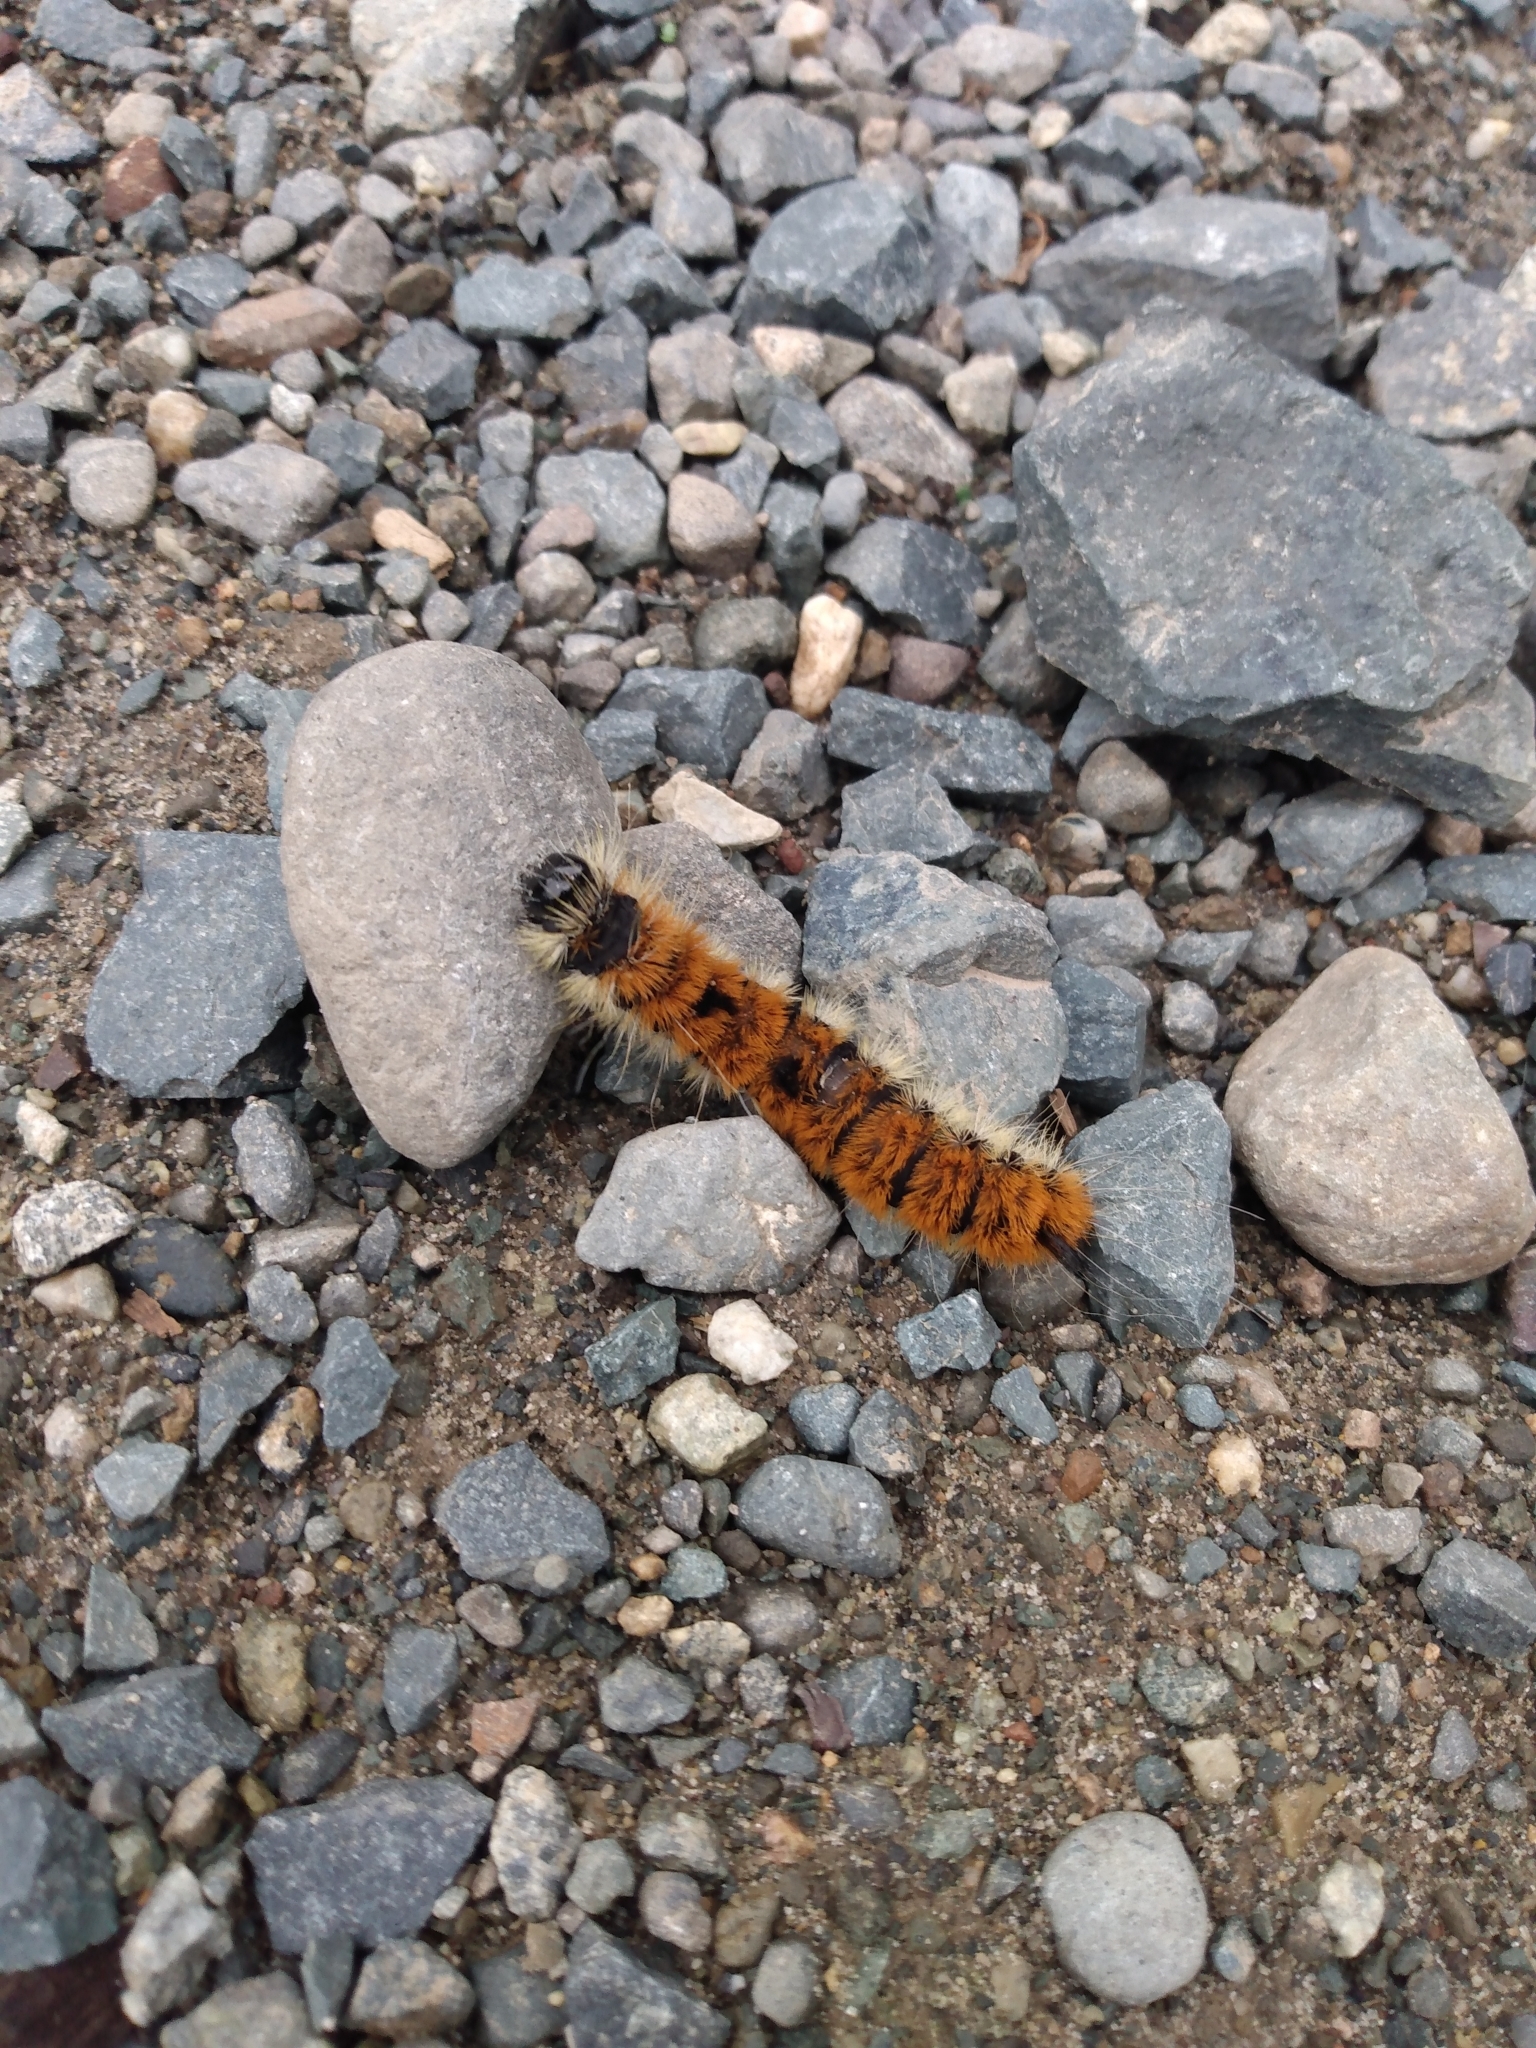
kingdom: Animalia
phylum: Arthropoda
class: Insecta
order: Lepidoptera
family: Noctuidae
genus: Acronicta
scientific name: Acronicta insita
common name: Large gray dagger
